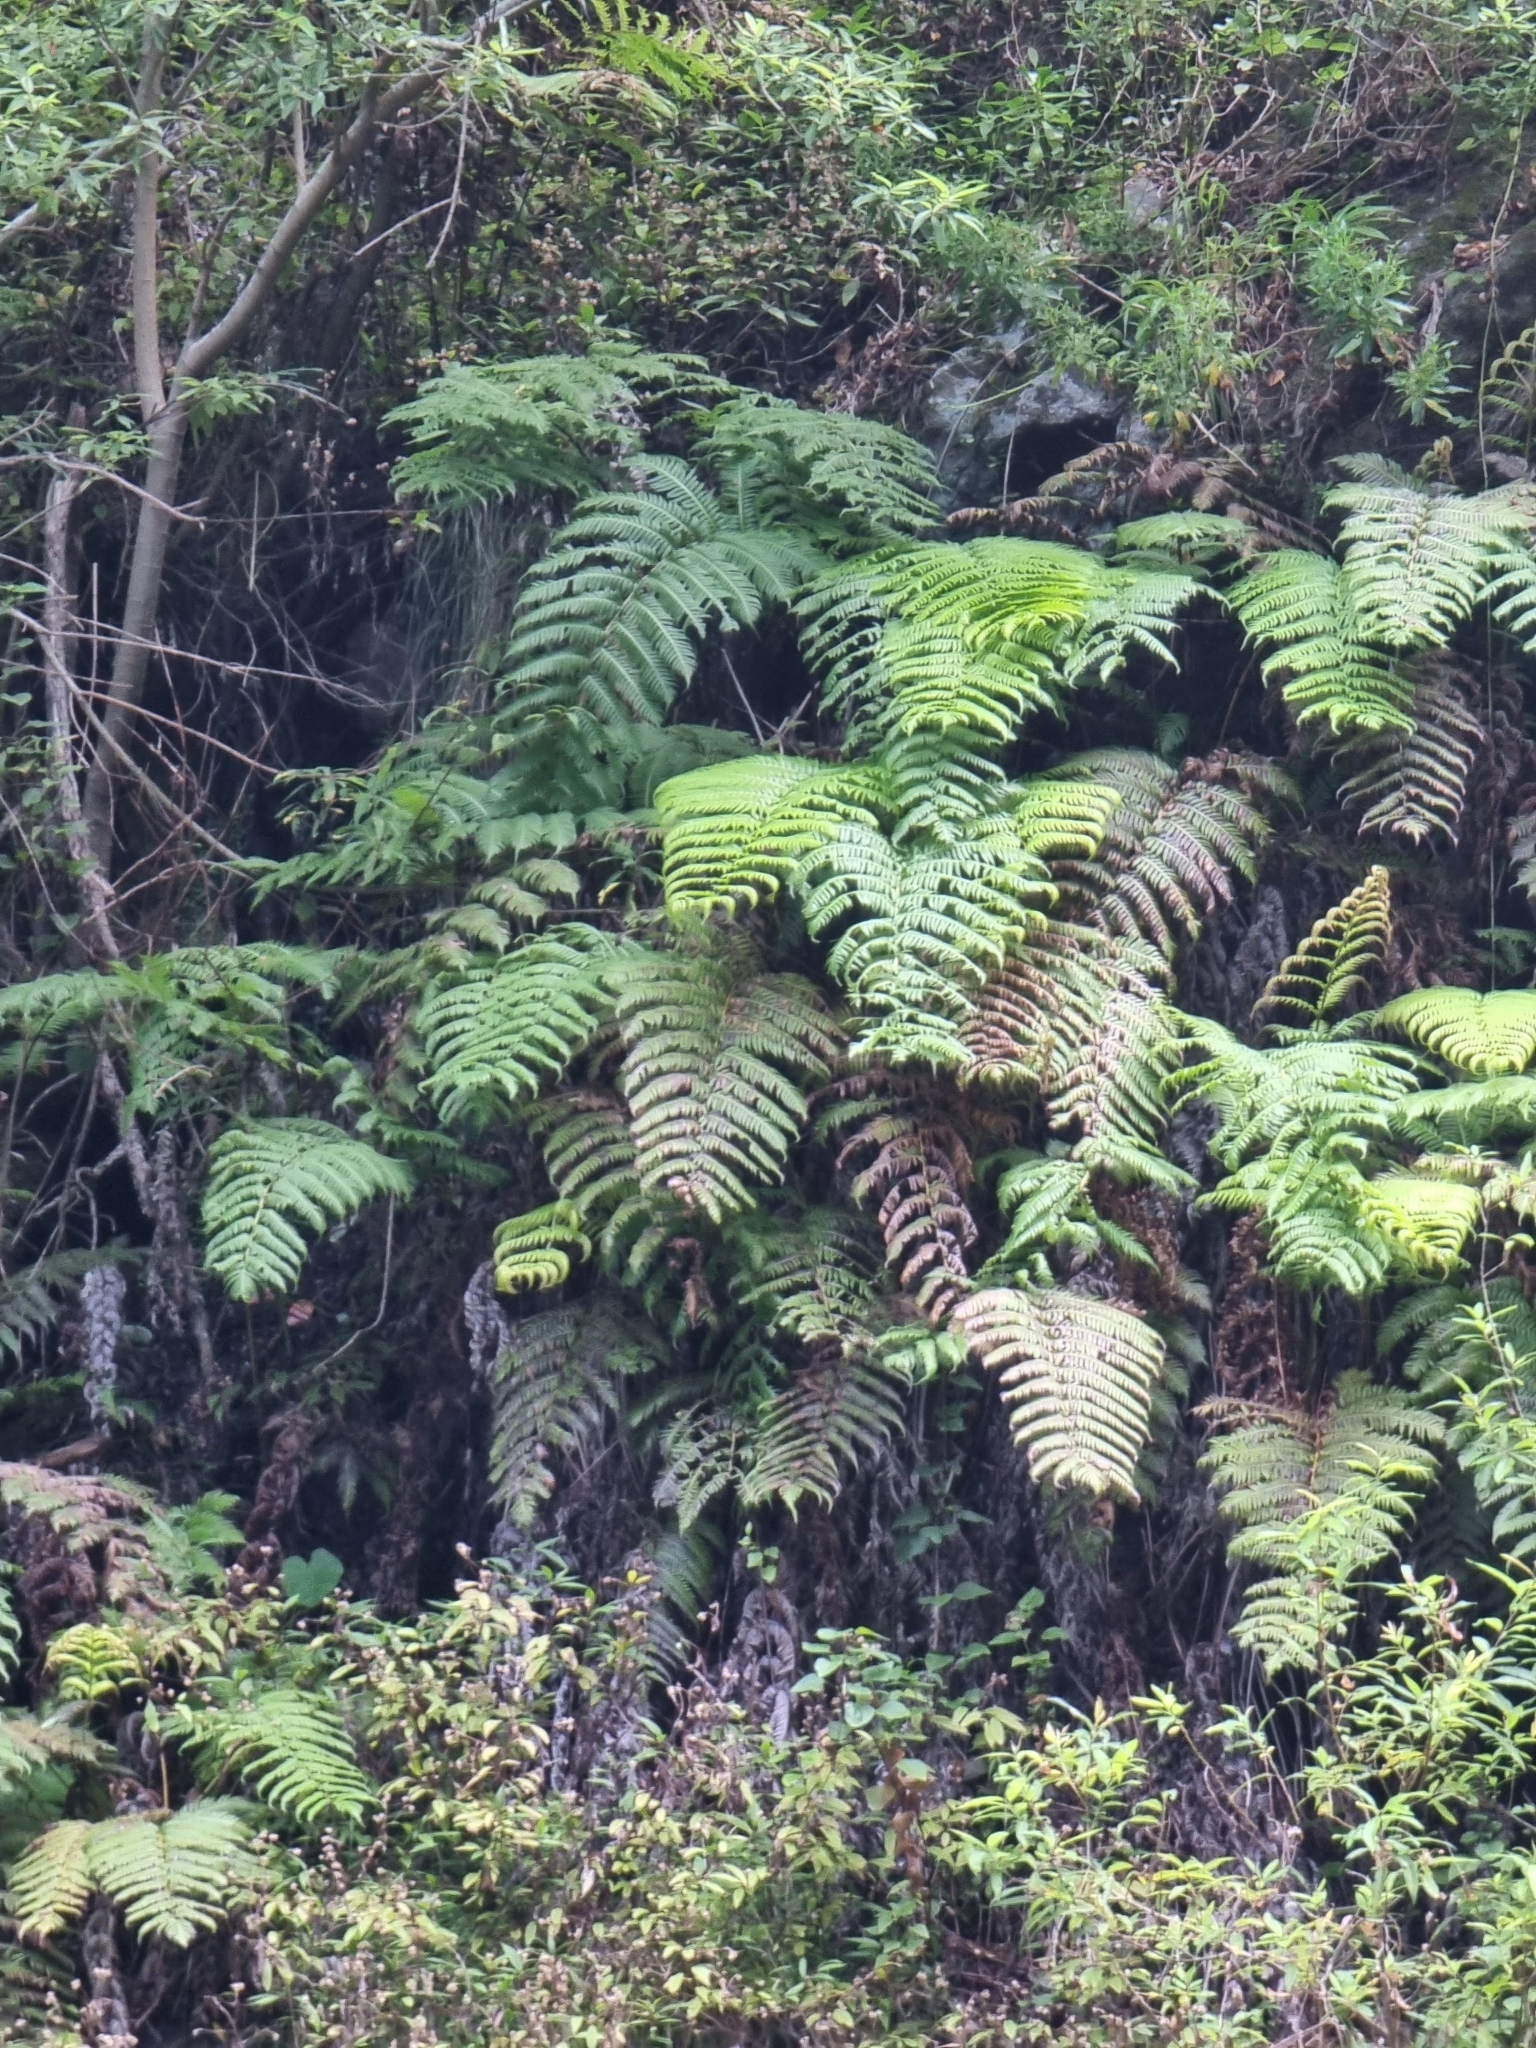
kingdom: Plantae
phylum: Tracheophyta
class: Polypodiopsida
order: Polypodiales
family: Blechnaceae
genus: Woodwardia
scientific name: Woodwardia radicans
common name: Rooting chainfern
